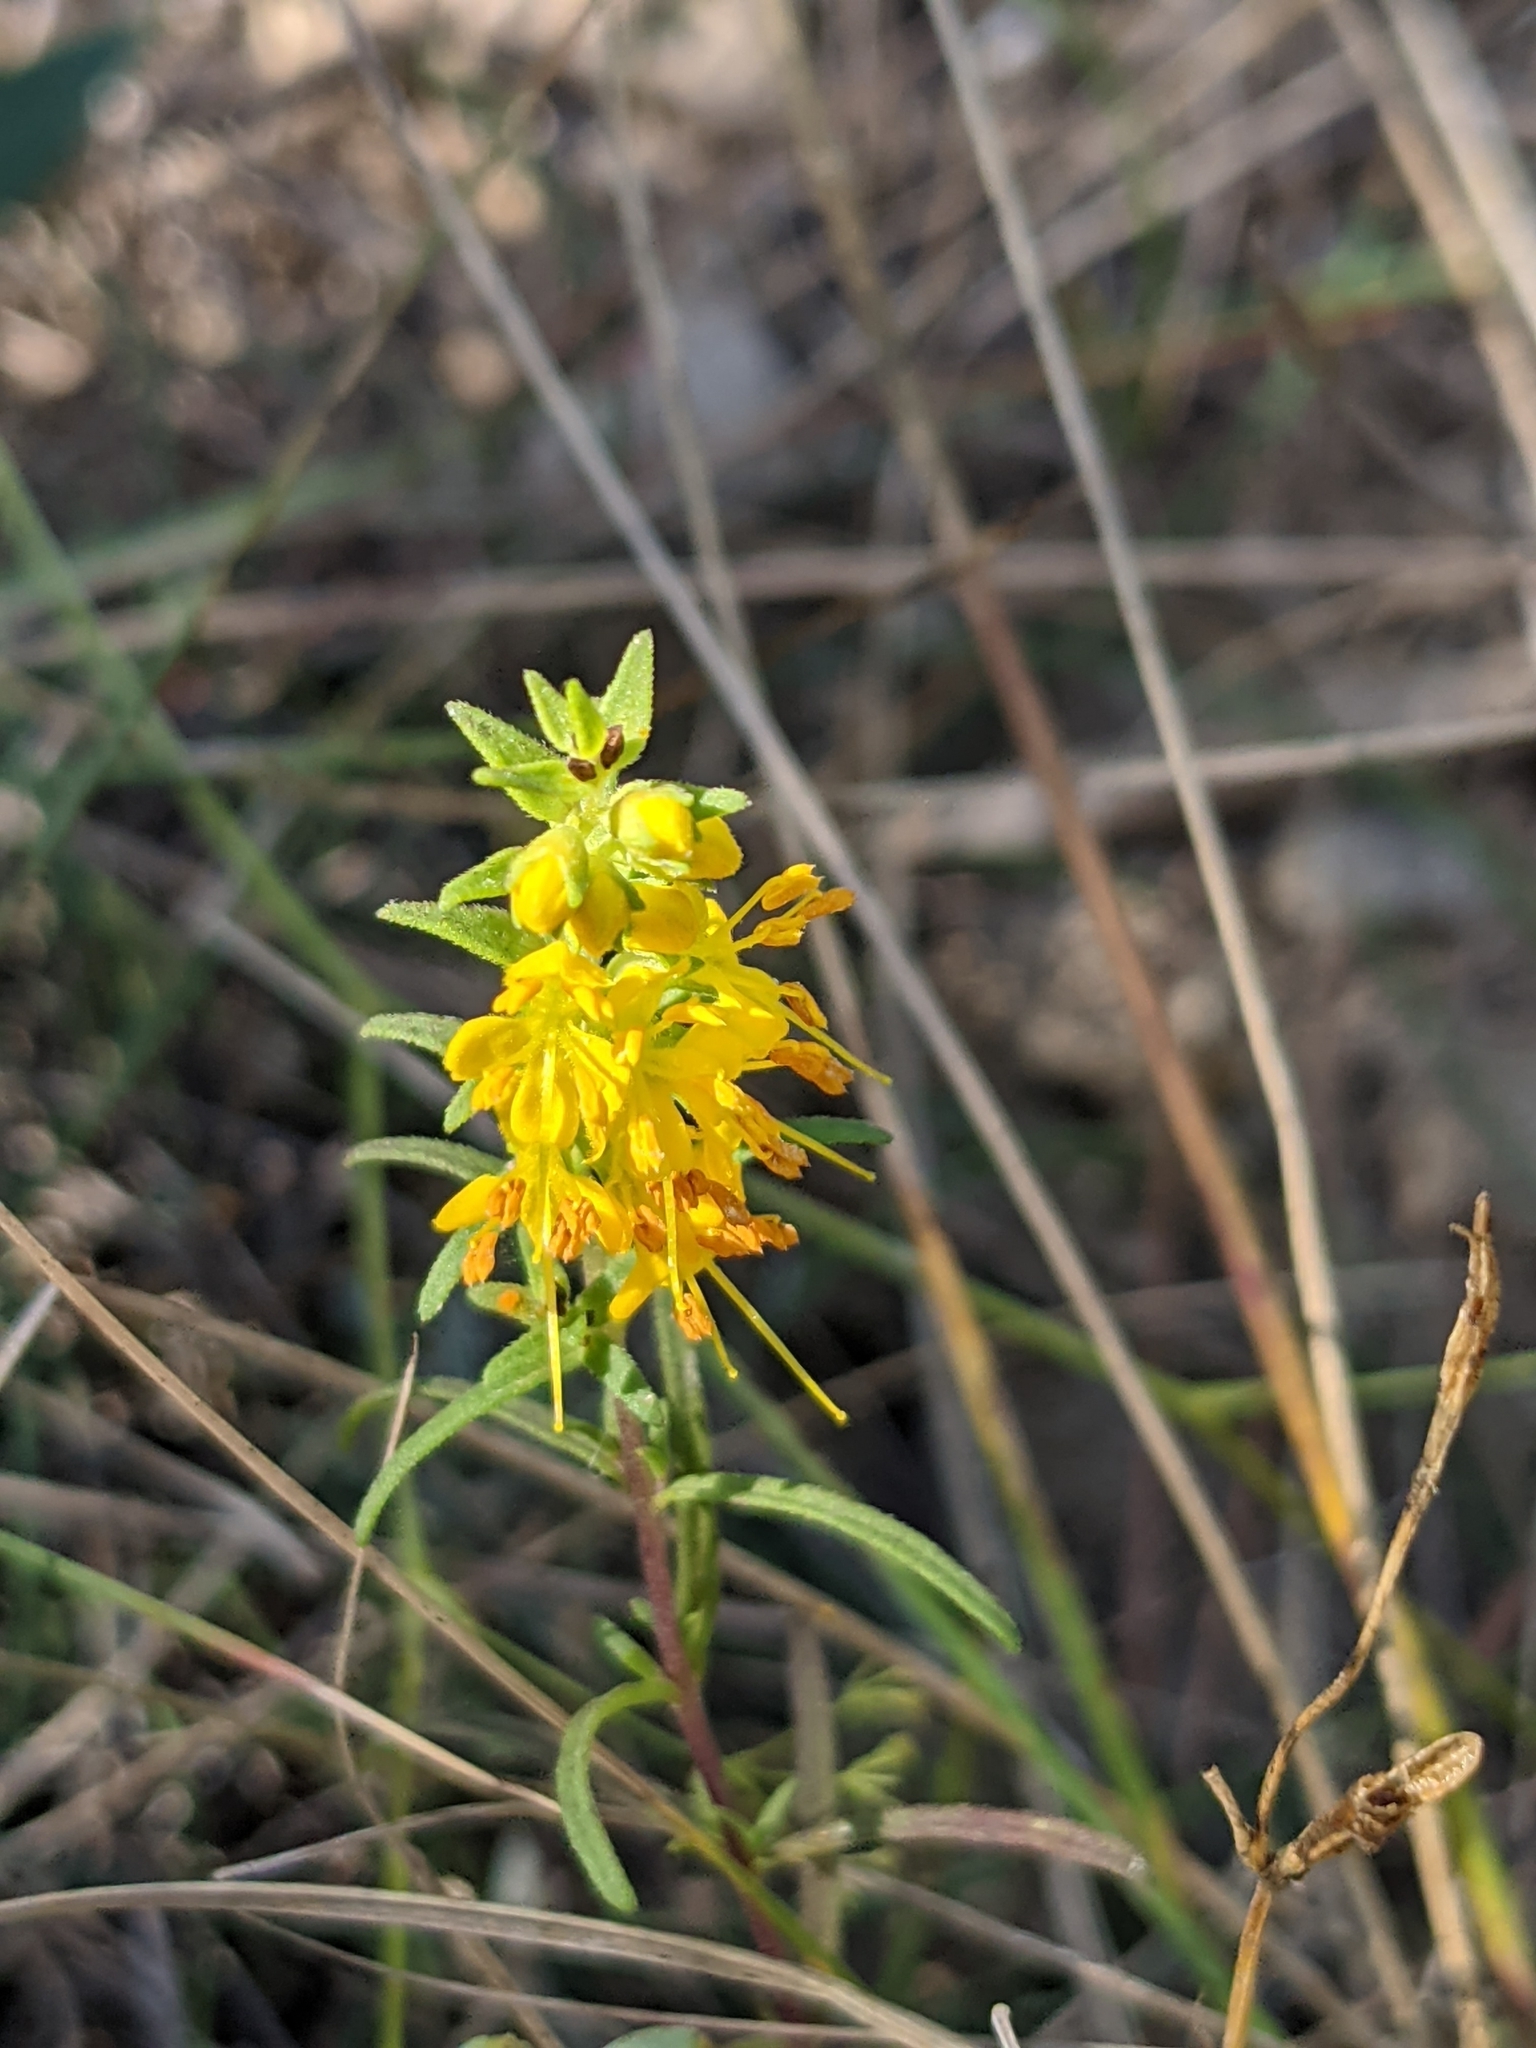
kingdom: Plantae
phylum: Tracheophyta
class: Magnoliopsida
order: Lamiales
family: Orobanchaceae
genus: Odontites
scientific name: Odontites luteus
